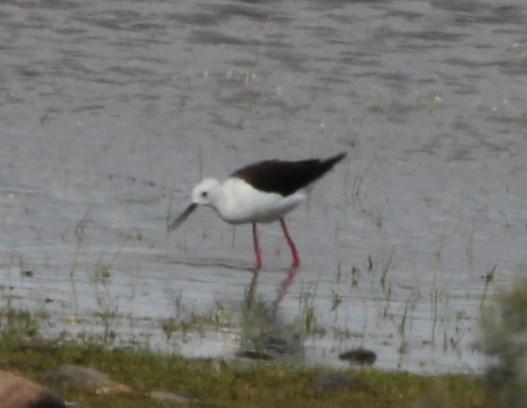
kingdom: Animalia
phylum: Chordata
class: Aves
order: Charadriiformes
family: Recurvirostridae
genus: Himantopus
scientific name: Himantopus himantopus
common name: Black-winged stilt
